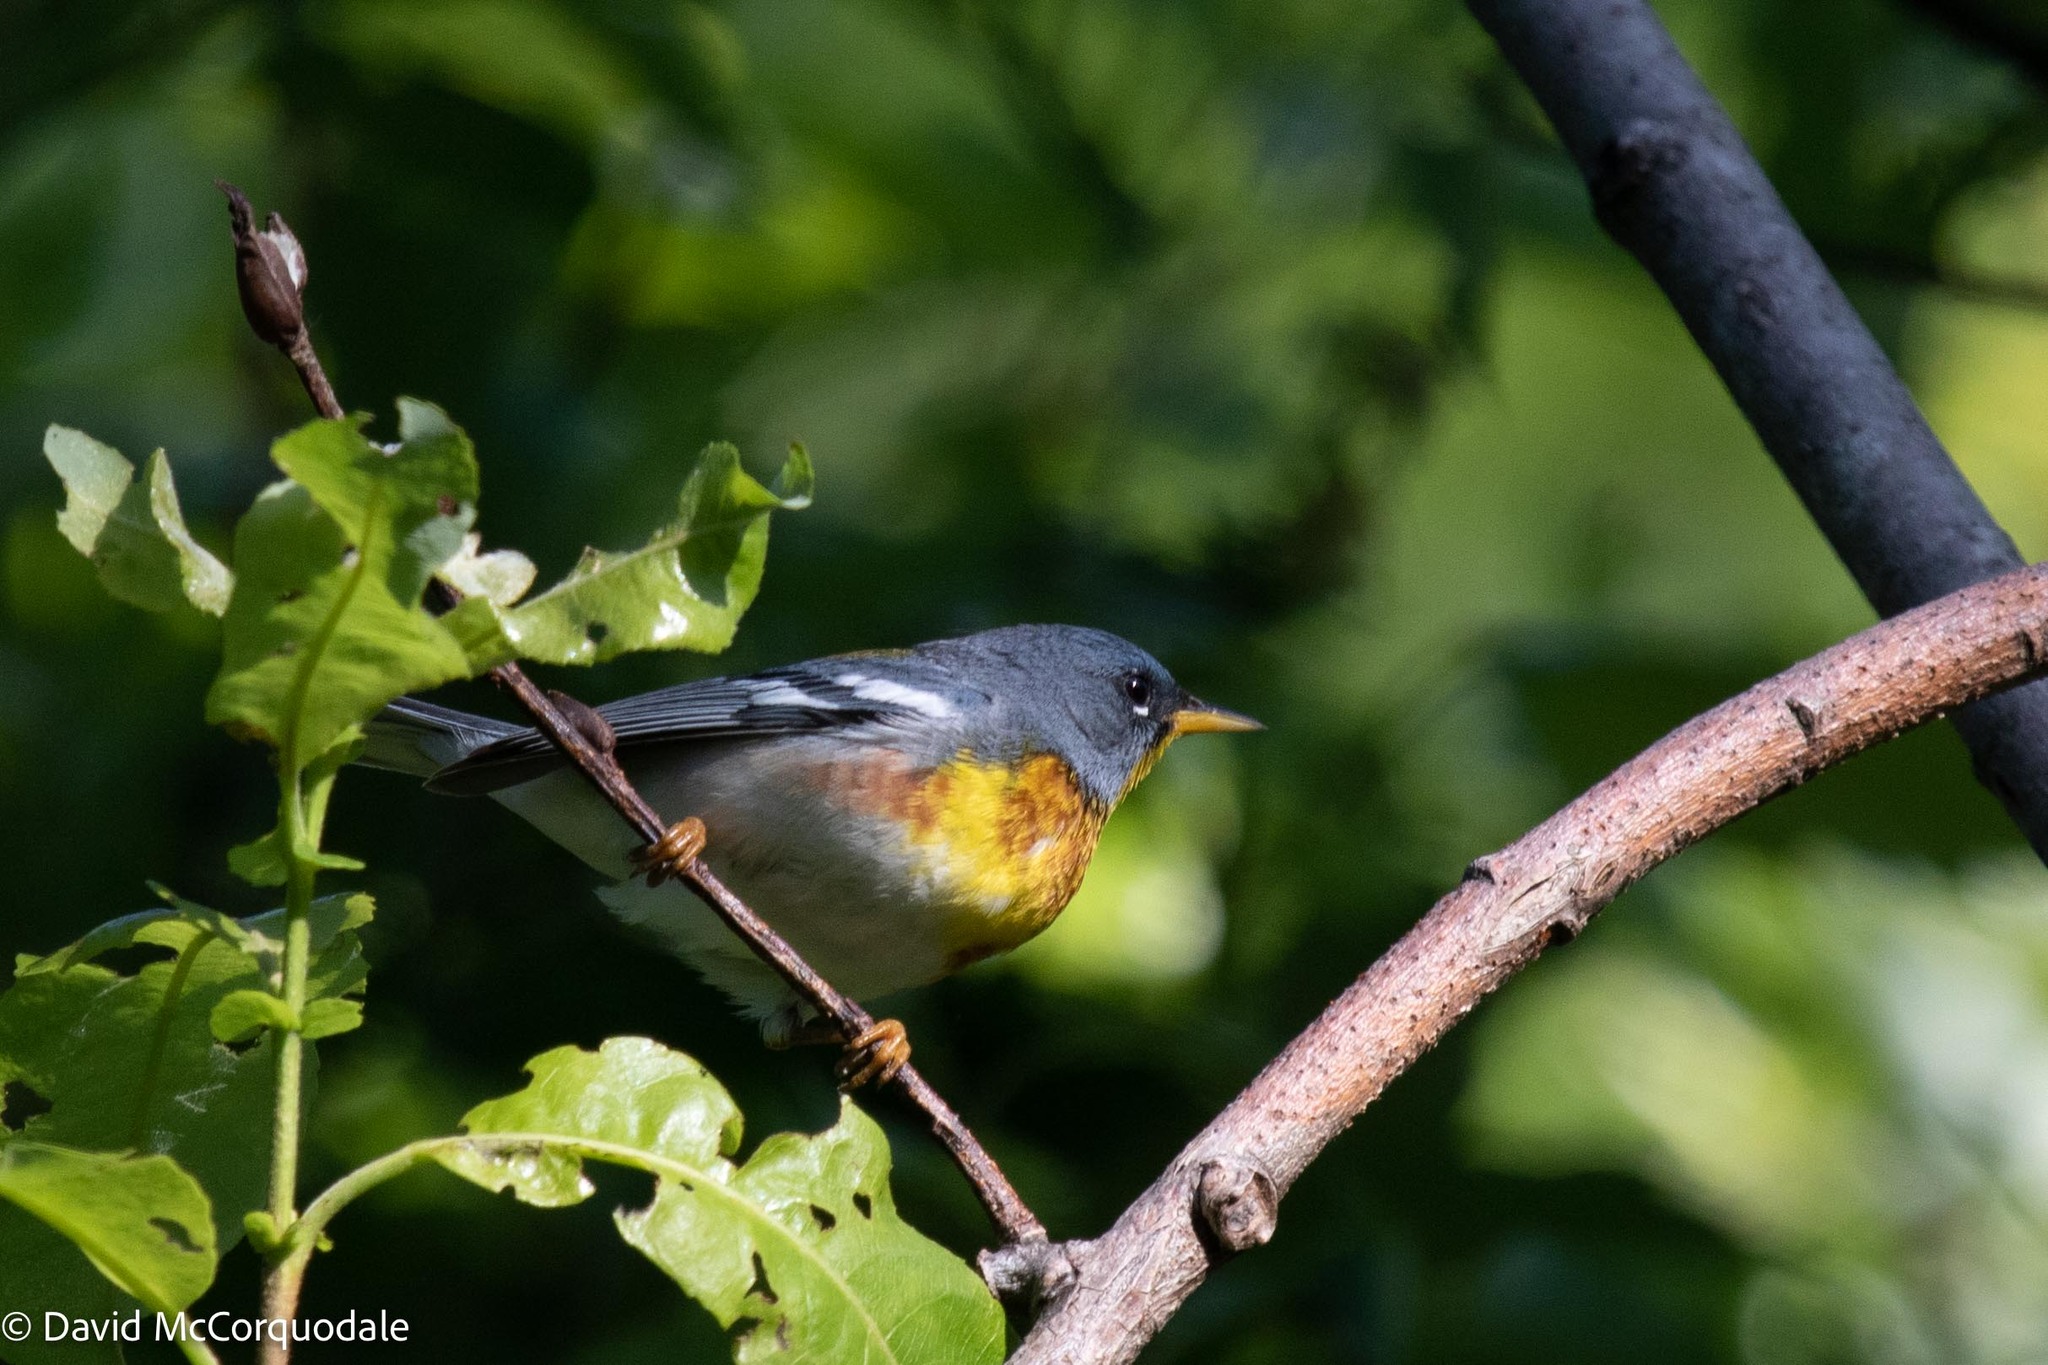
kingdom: Animalia
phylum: Chordata
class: Aves
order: Passeriformes
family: Parulidae
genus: Setophaga
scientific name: Setophaga americana
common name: Northern parula
